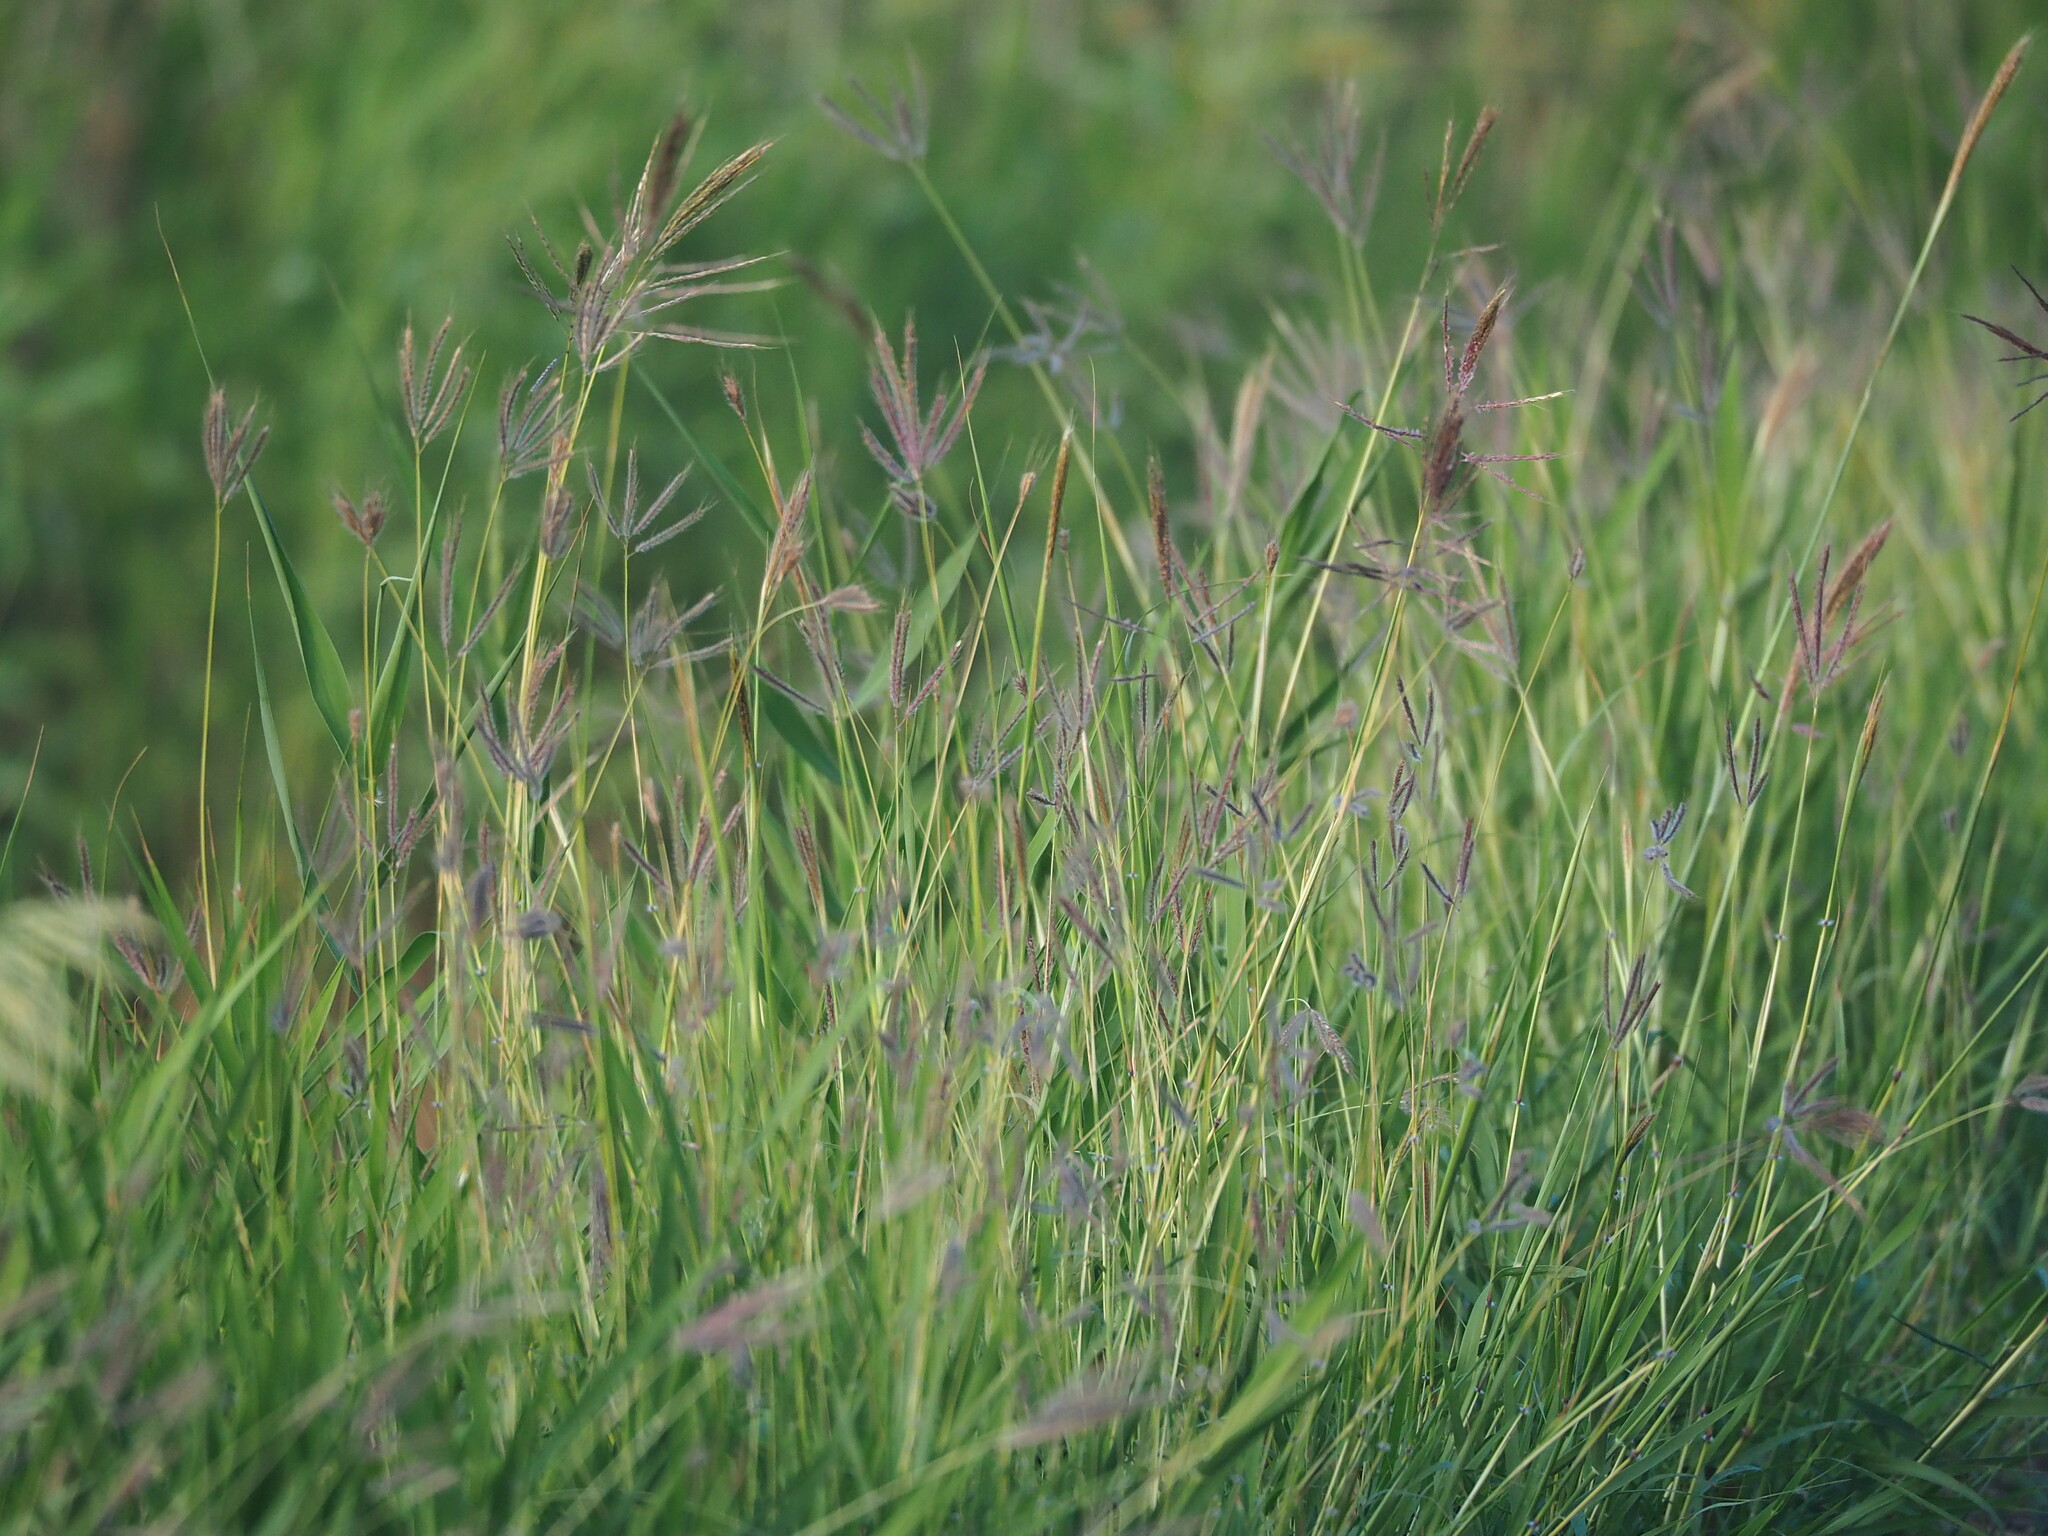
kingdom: Plantae
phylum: Tracheophyta
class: Liliopsida
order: Poales
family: Poaceae
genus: Bothriochloa
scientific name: Bothriochloa bladhii
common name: Caucasian bluestem
